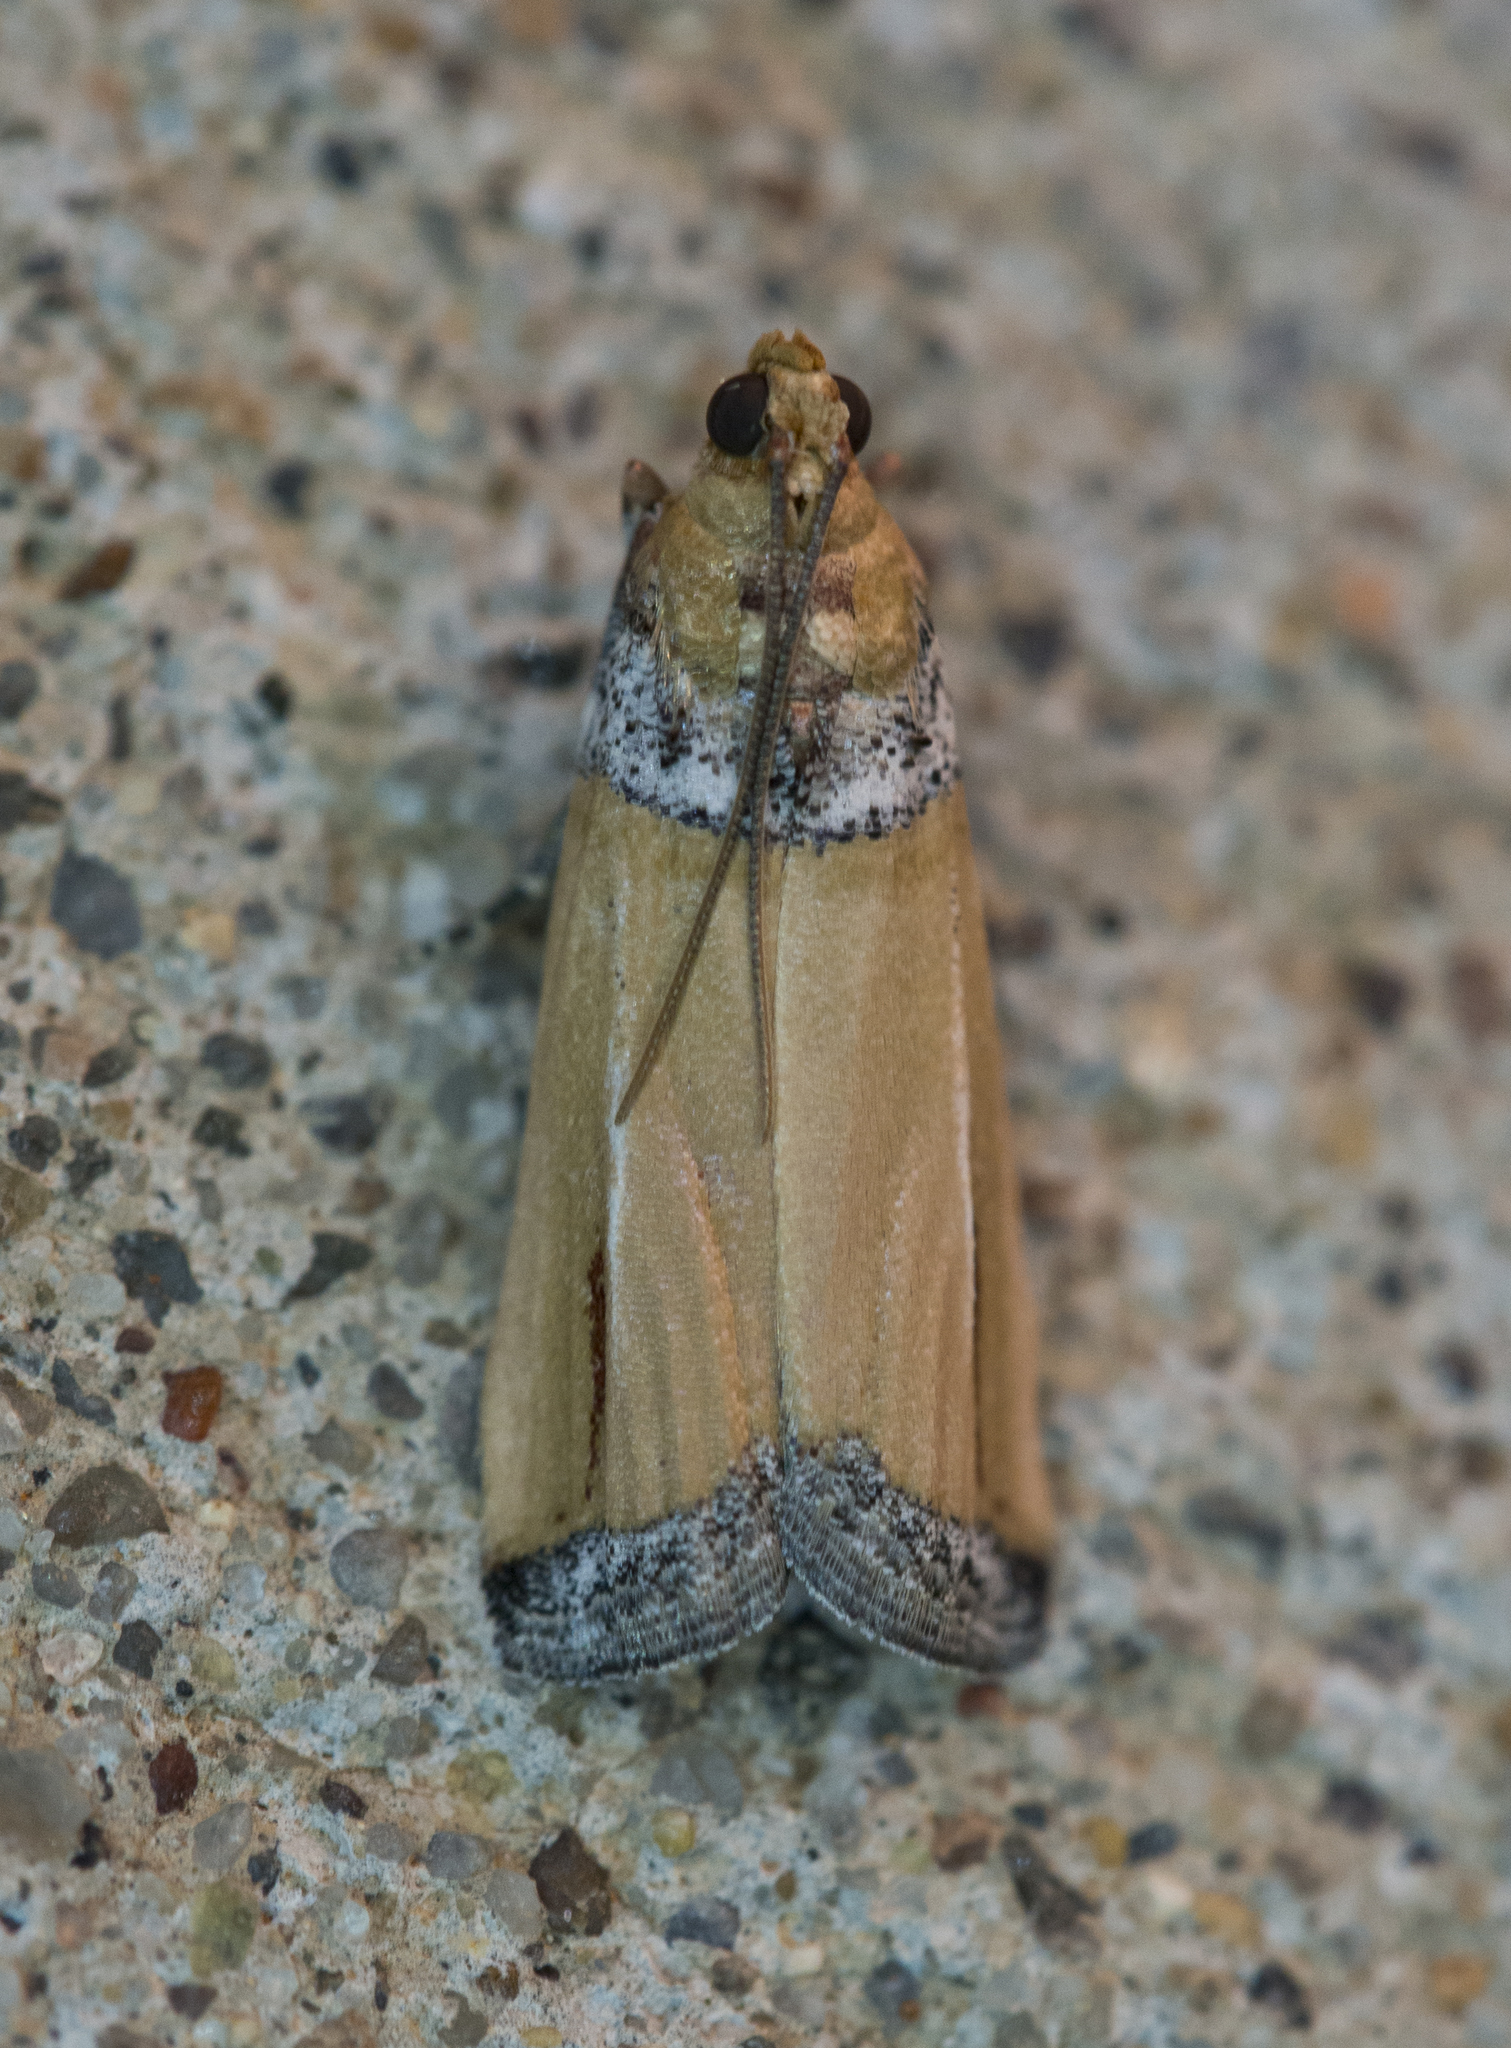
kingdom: Animalia
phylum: Arthropoda
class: Insecta
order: Lepidoptera
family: Pyralidae
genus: Dasypyga
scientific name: Dasypyga salmocolor
